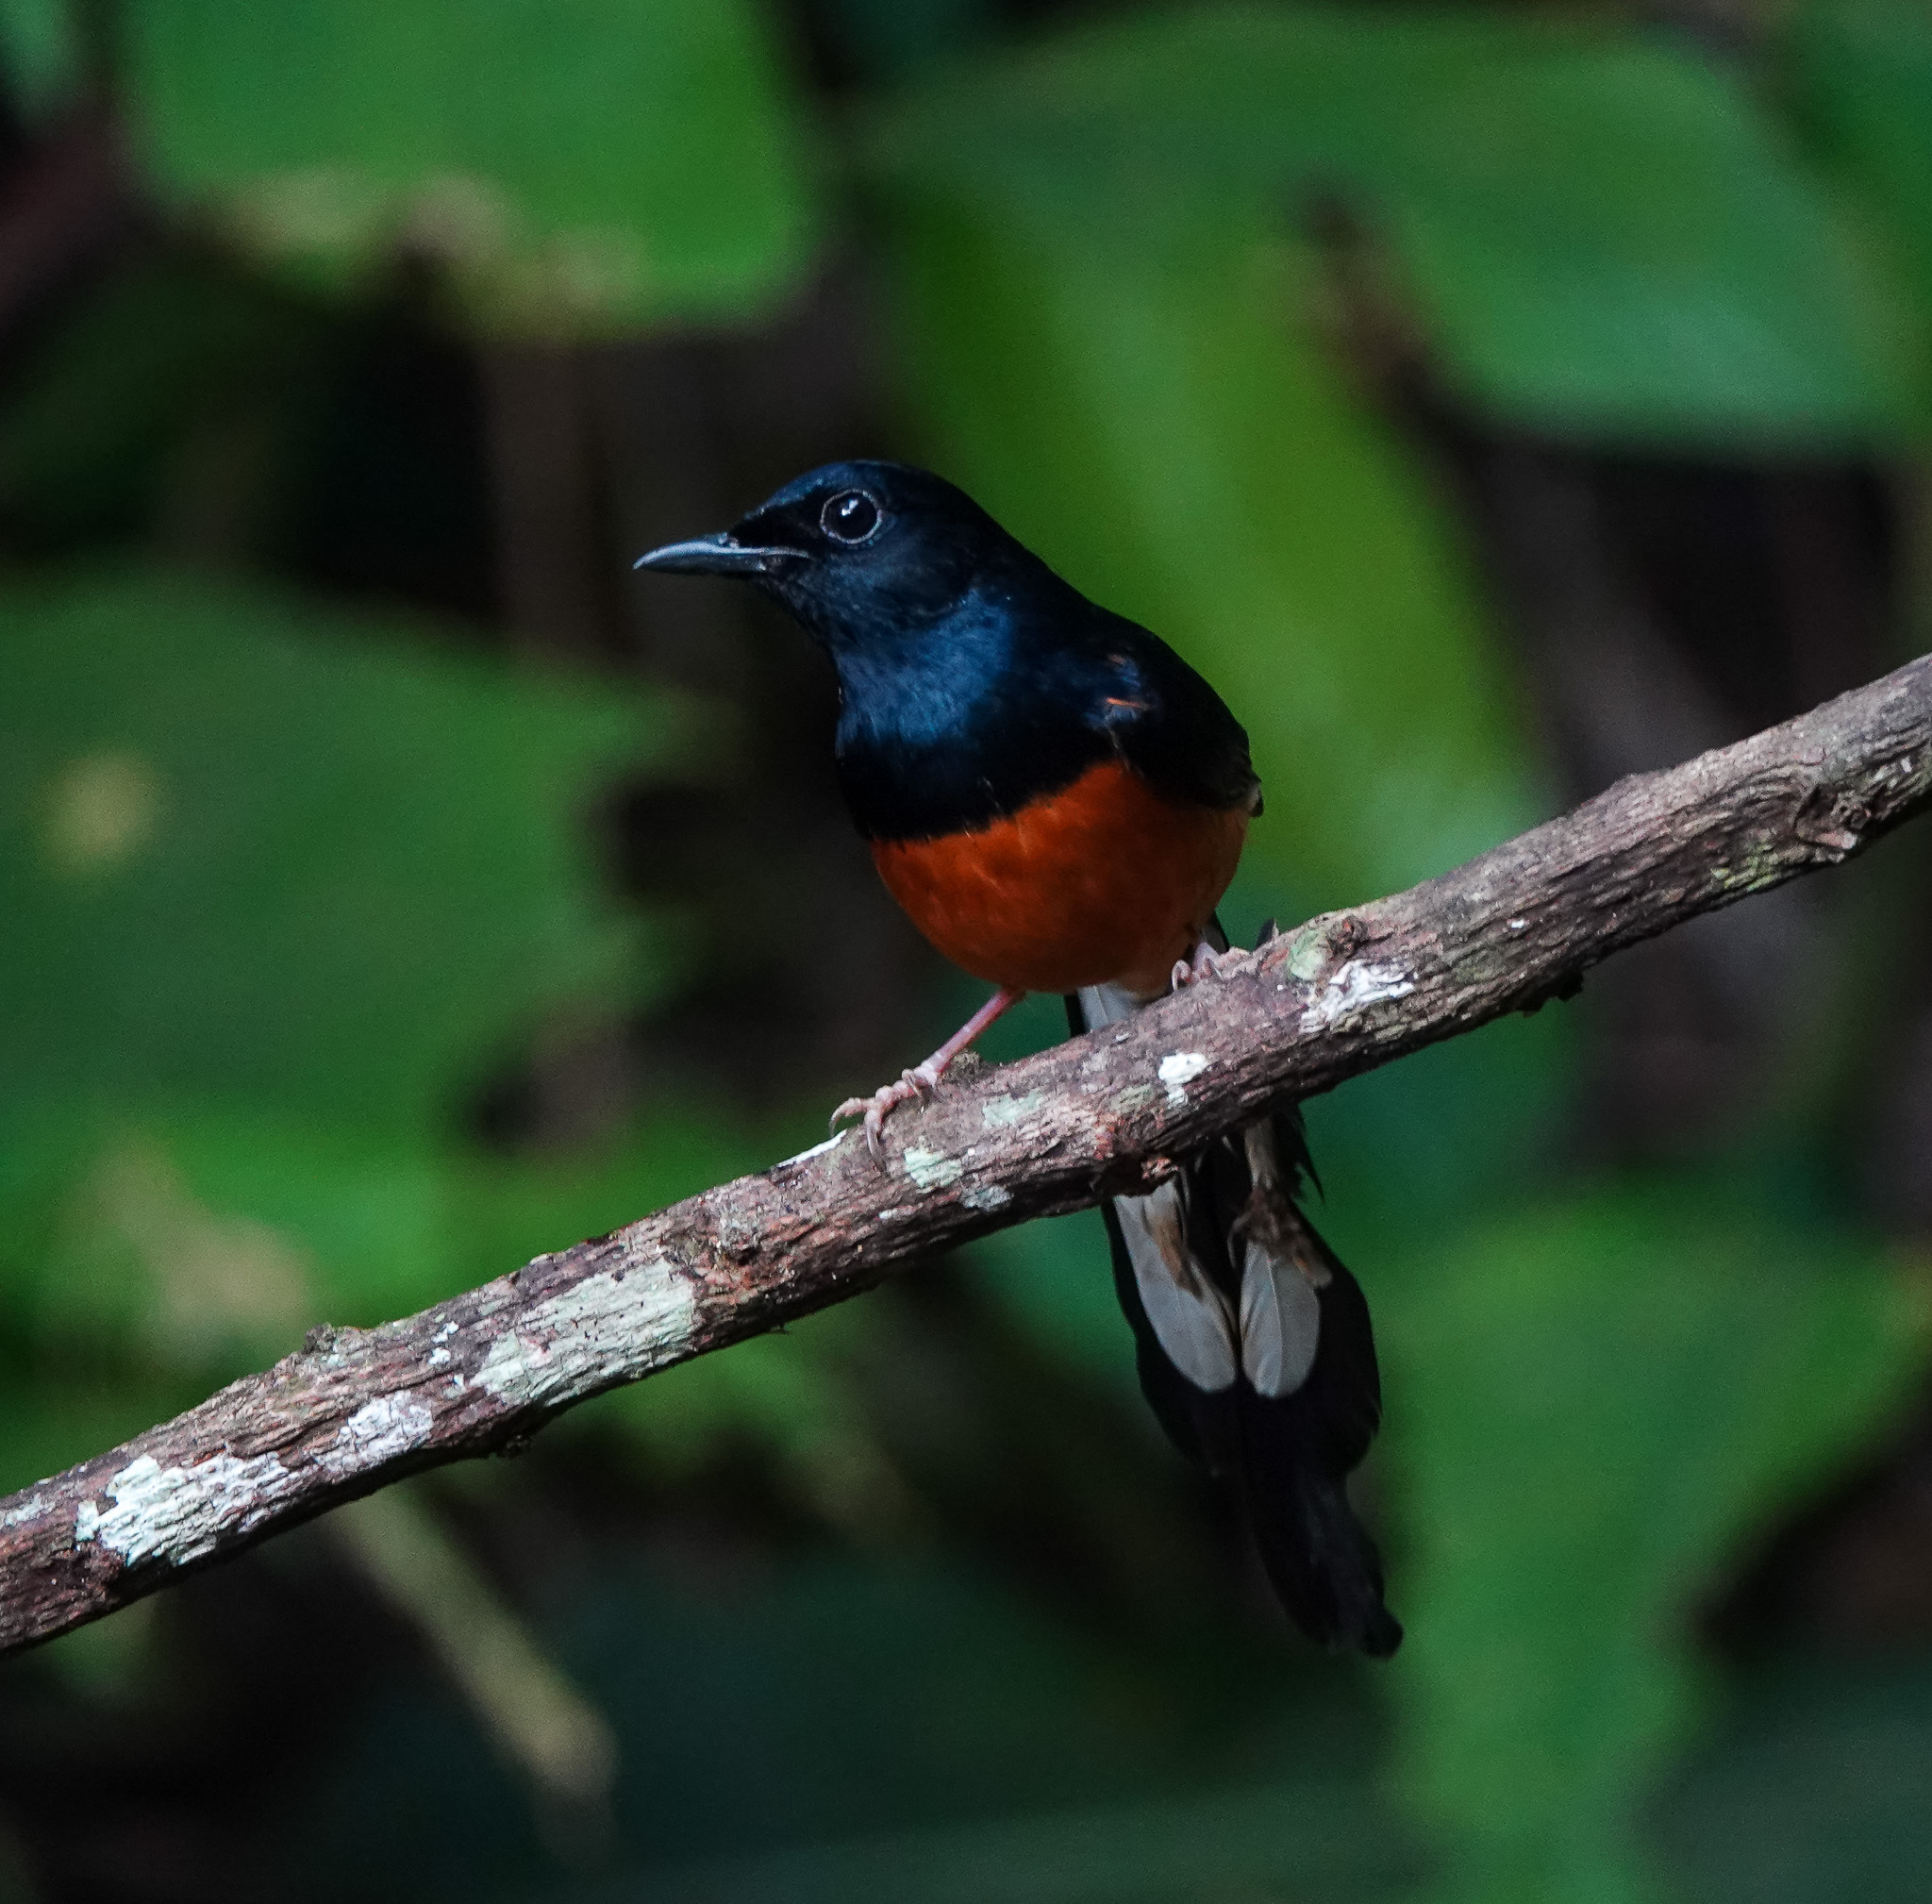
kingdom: Animalia
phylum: Chordata
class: Aves
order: Passeriformes
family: Muscicapidae
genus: Copsychus
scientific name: Copsychus malabaricus
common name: White-rumped shama
